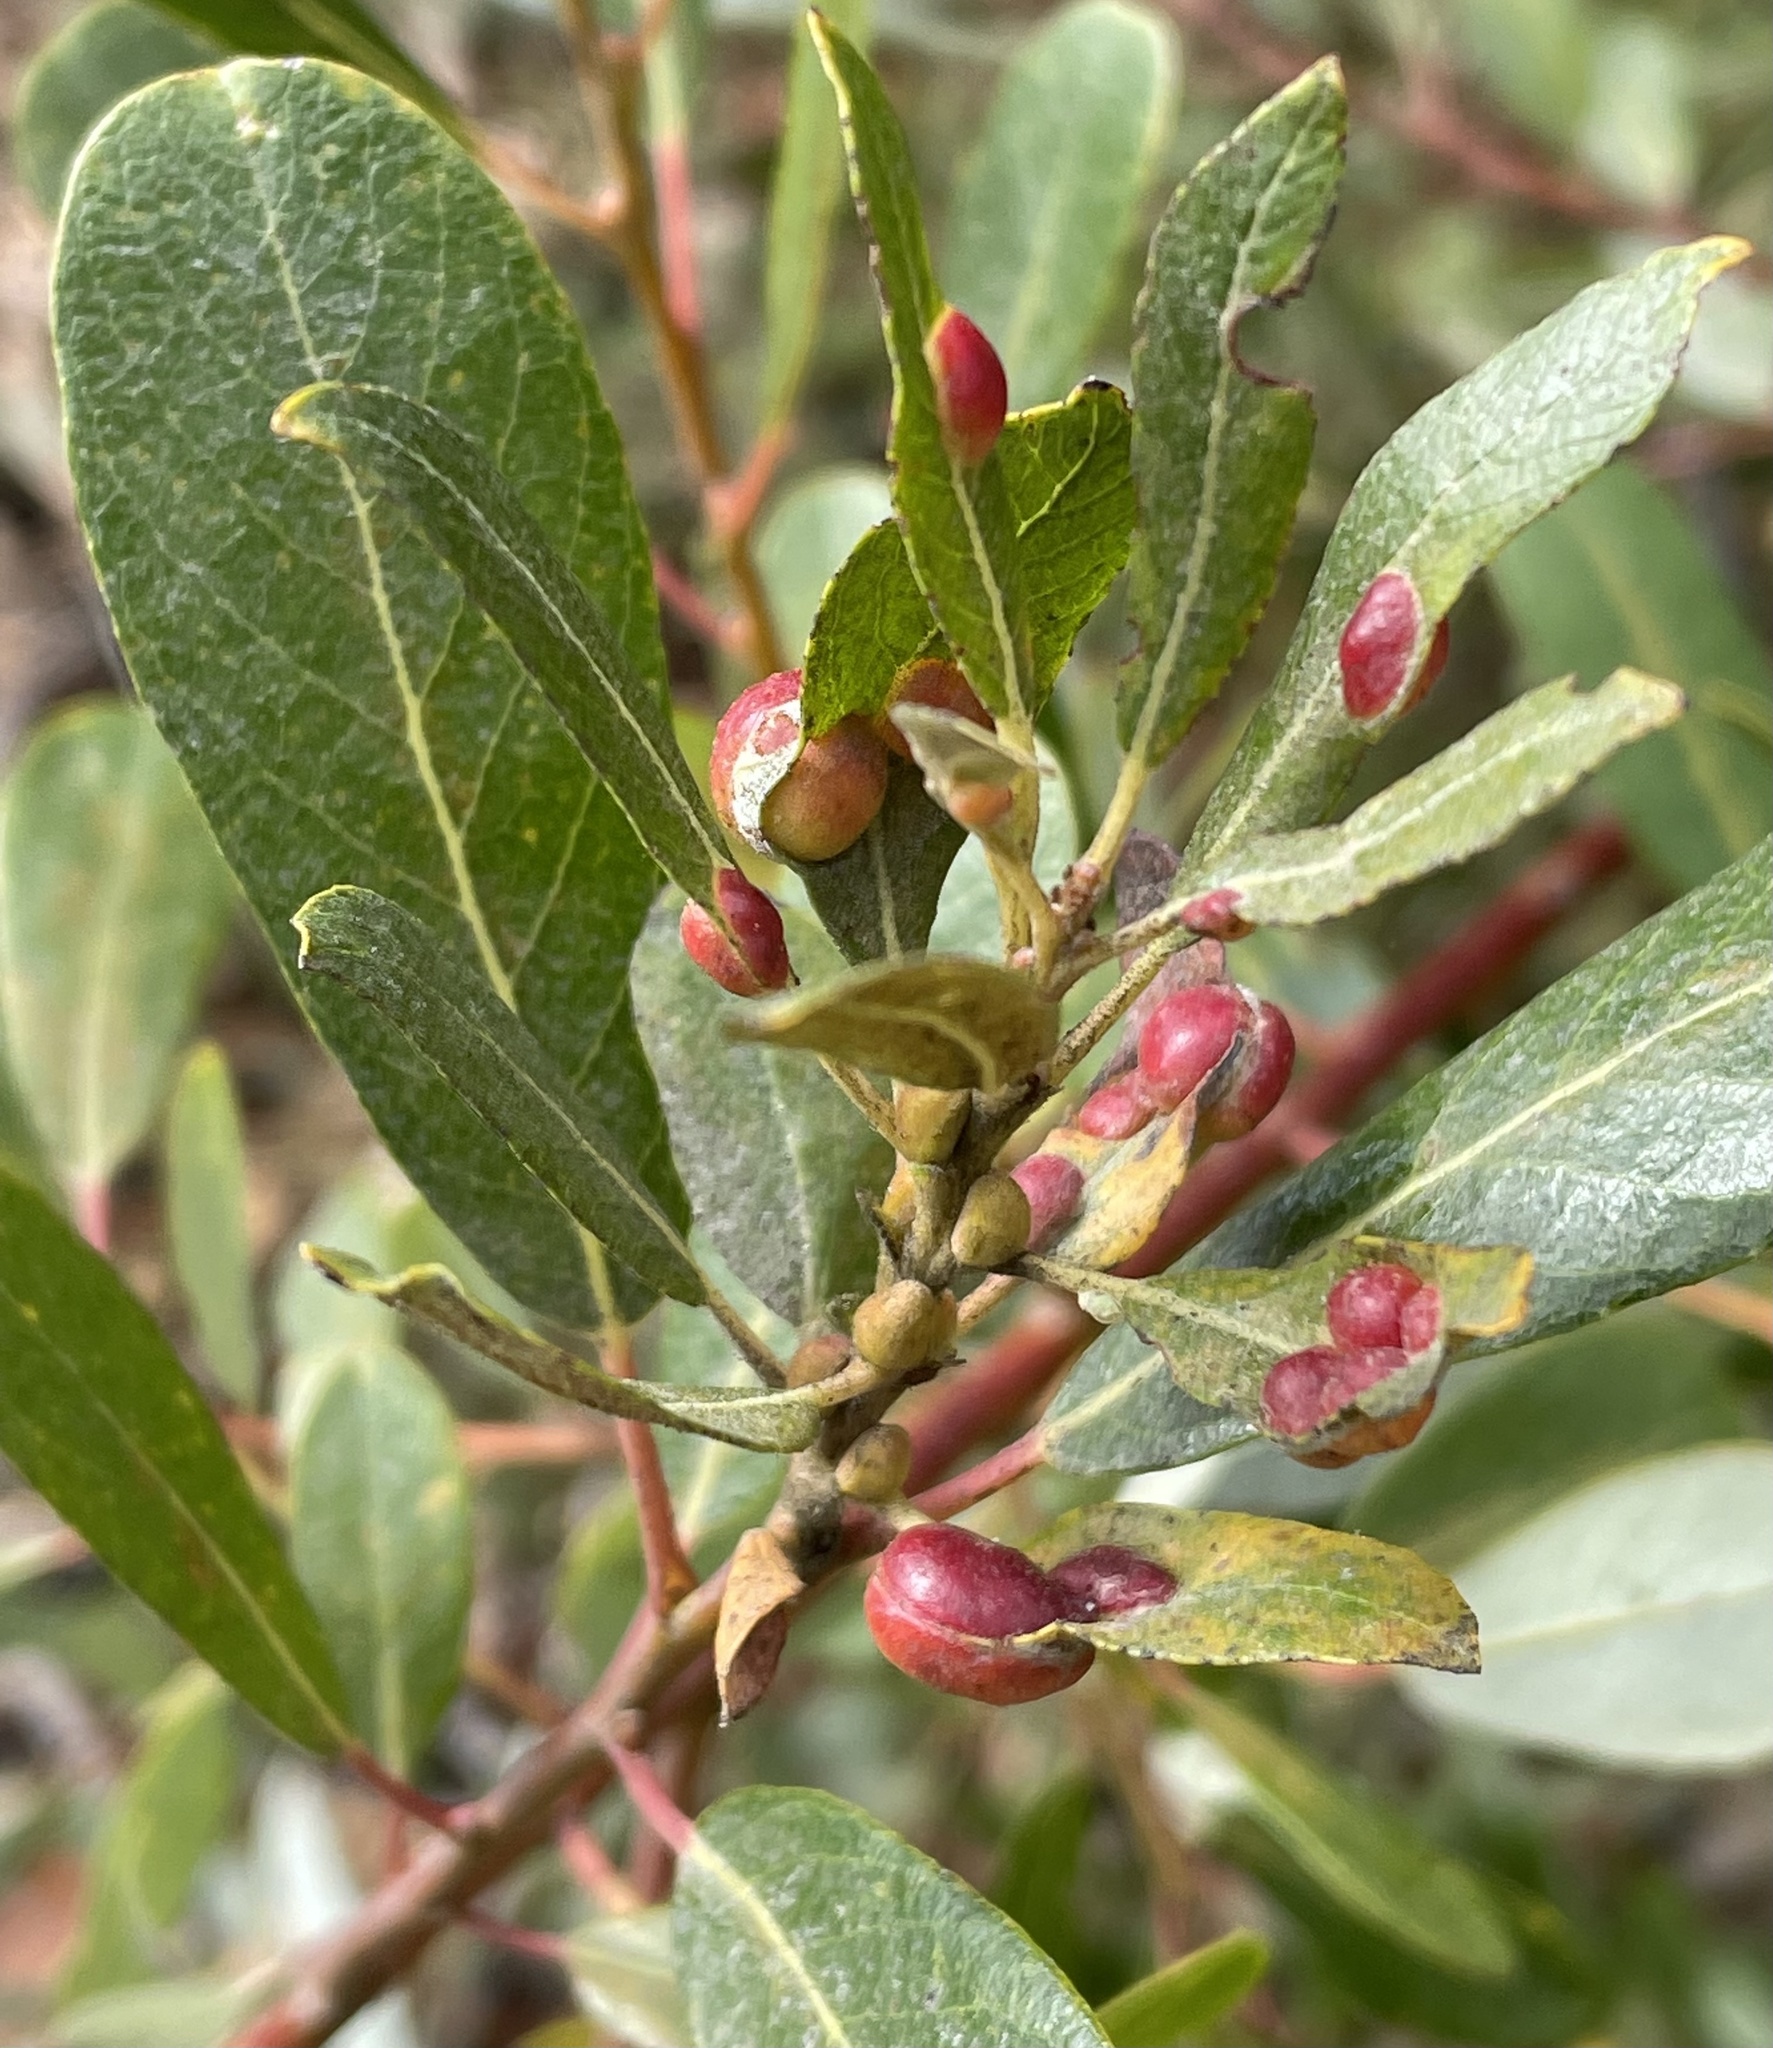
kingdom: Animalia
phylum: Arthropoda
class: Insecta
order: Hymenoptera
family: Tenthredinidae
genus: Euura
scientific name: Euura
